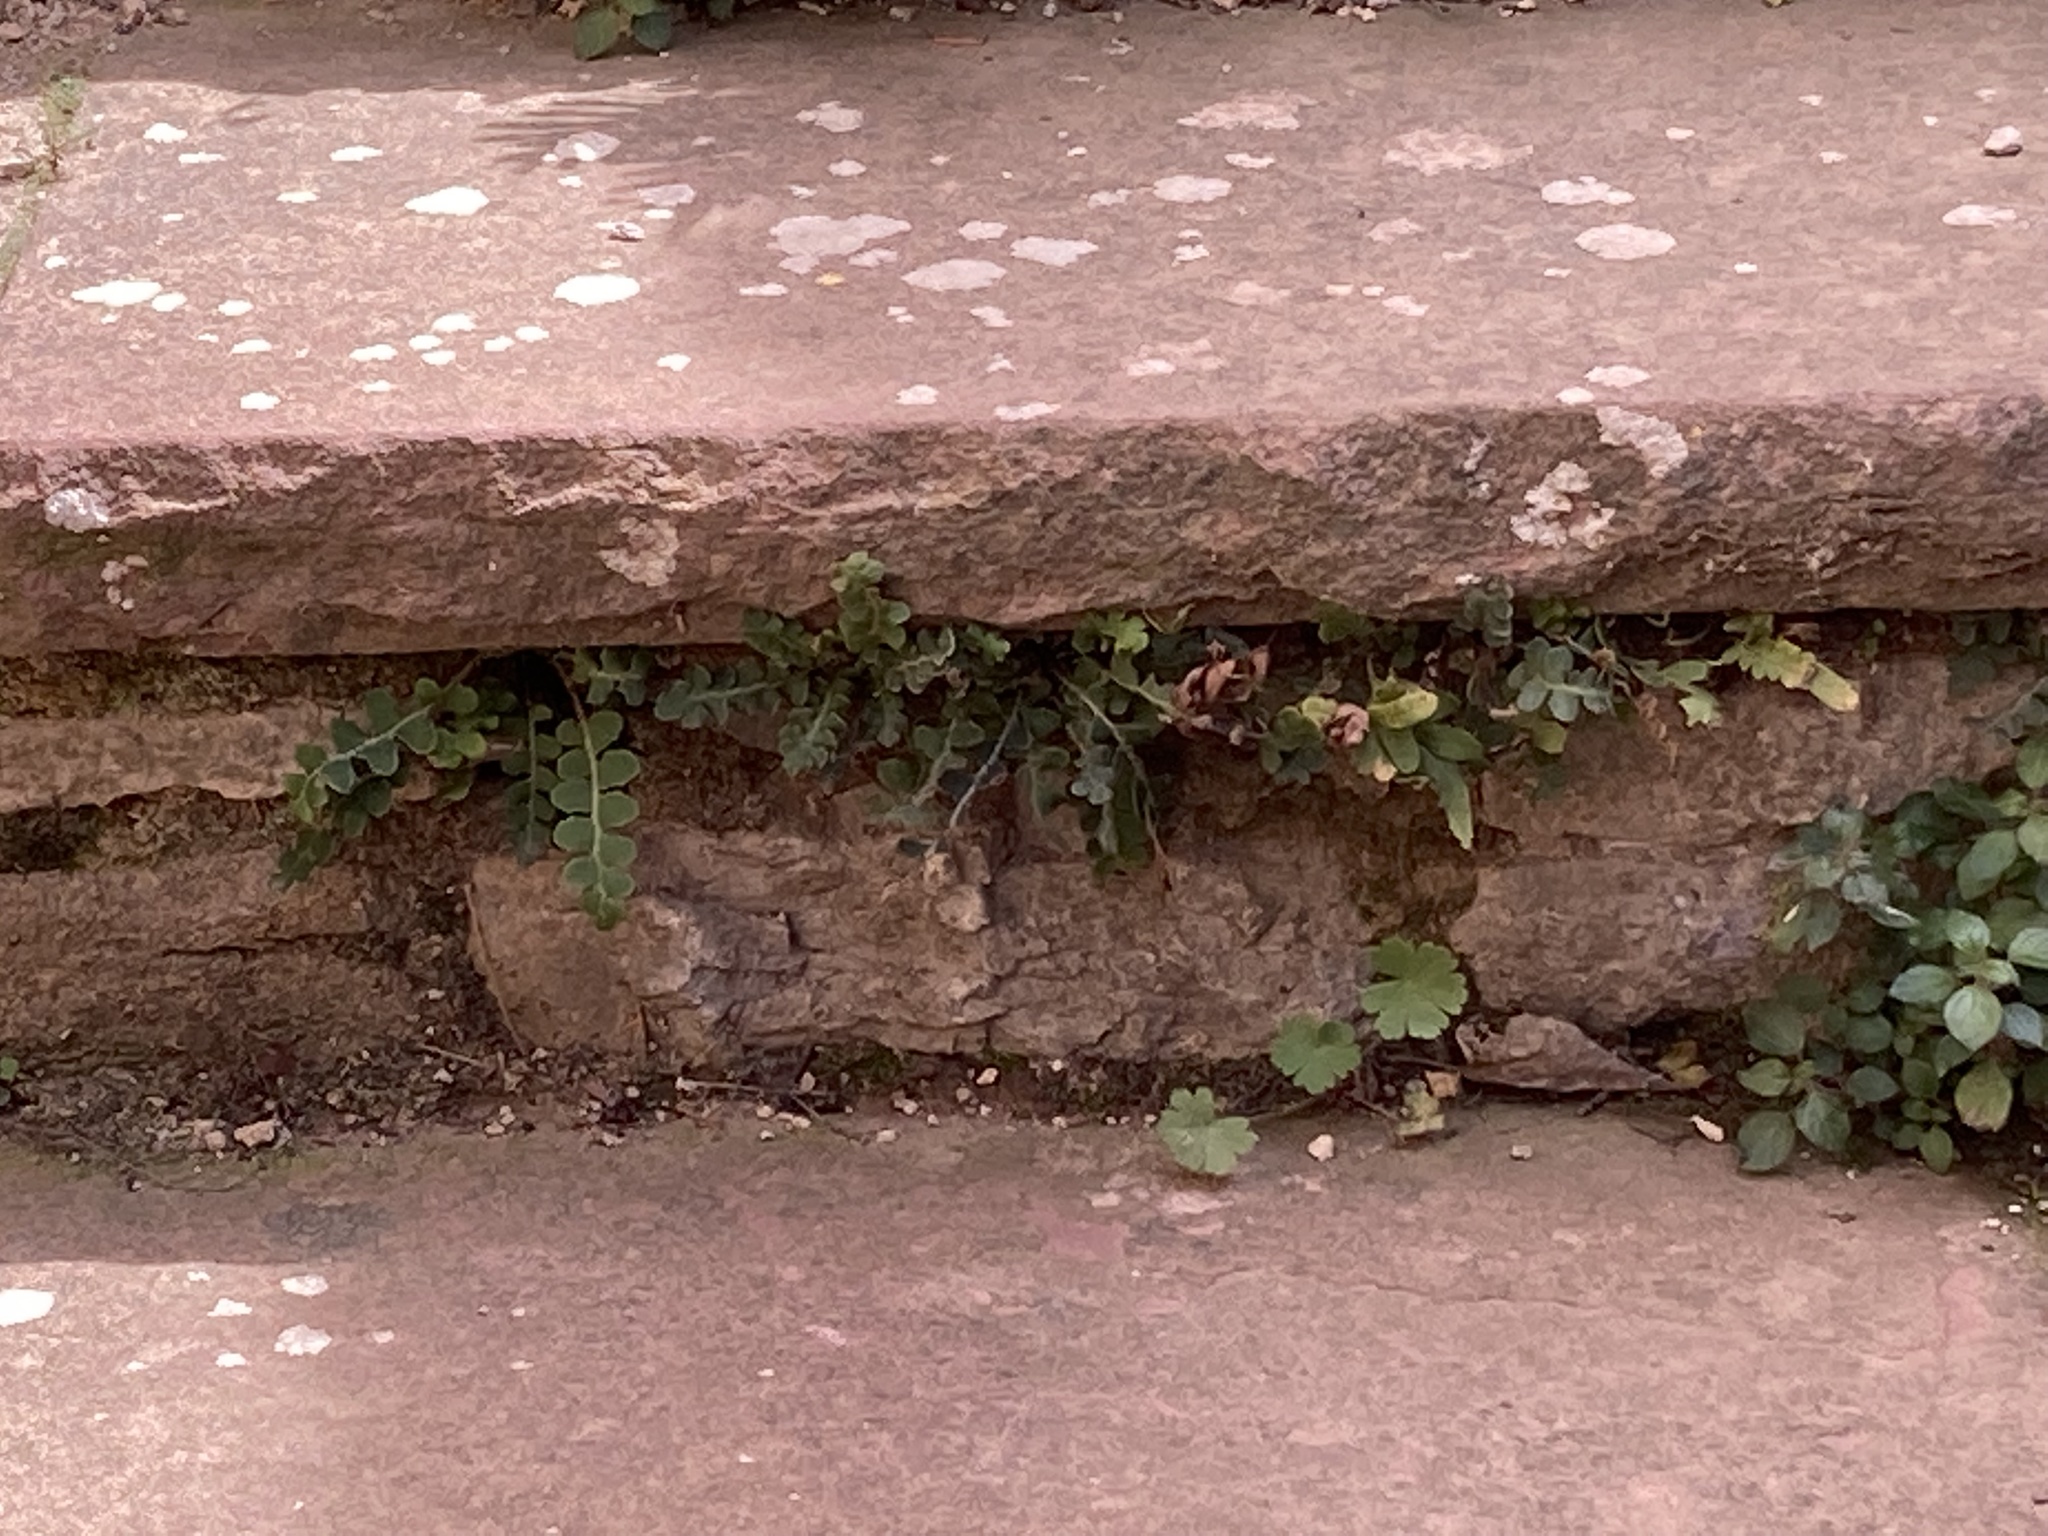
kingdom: Plantae
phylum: Tracheophyta
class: Polypodiopsida
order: Polypodiales
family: Aspleniaceae
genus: Asplenium
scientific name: Asplenium ceterach
